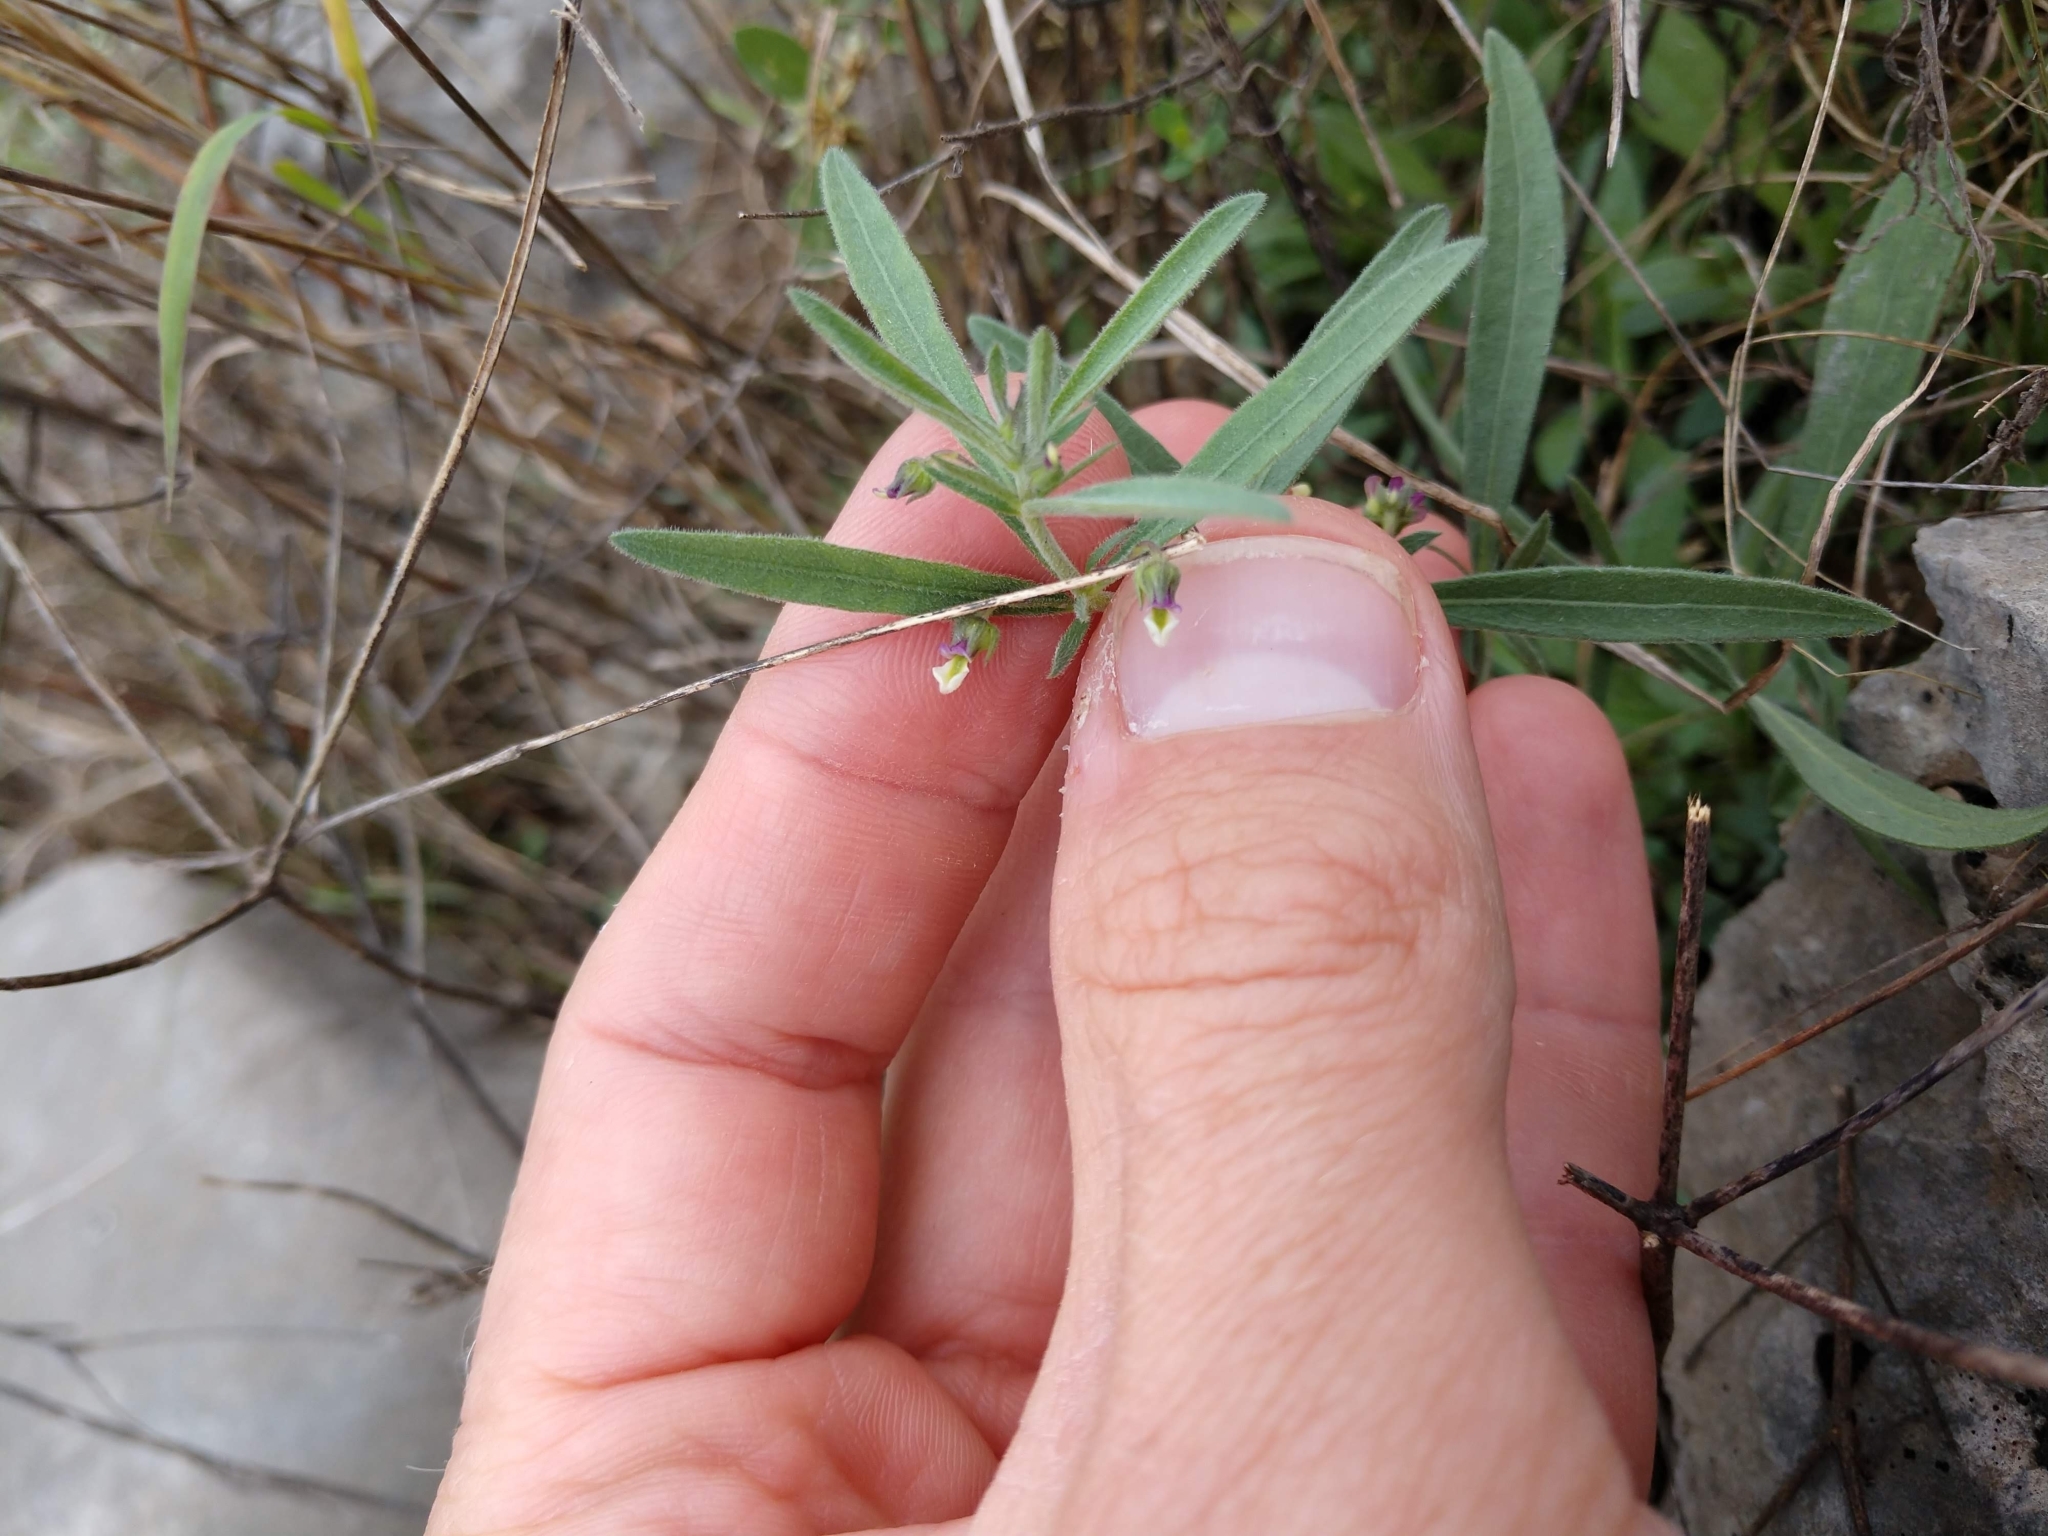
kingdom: Plantae
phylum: Tracheophyta
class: Magnoliopsida
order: Malpighiales
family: Violaceae
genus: Pombalia
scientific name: Pombalia verticillata
